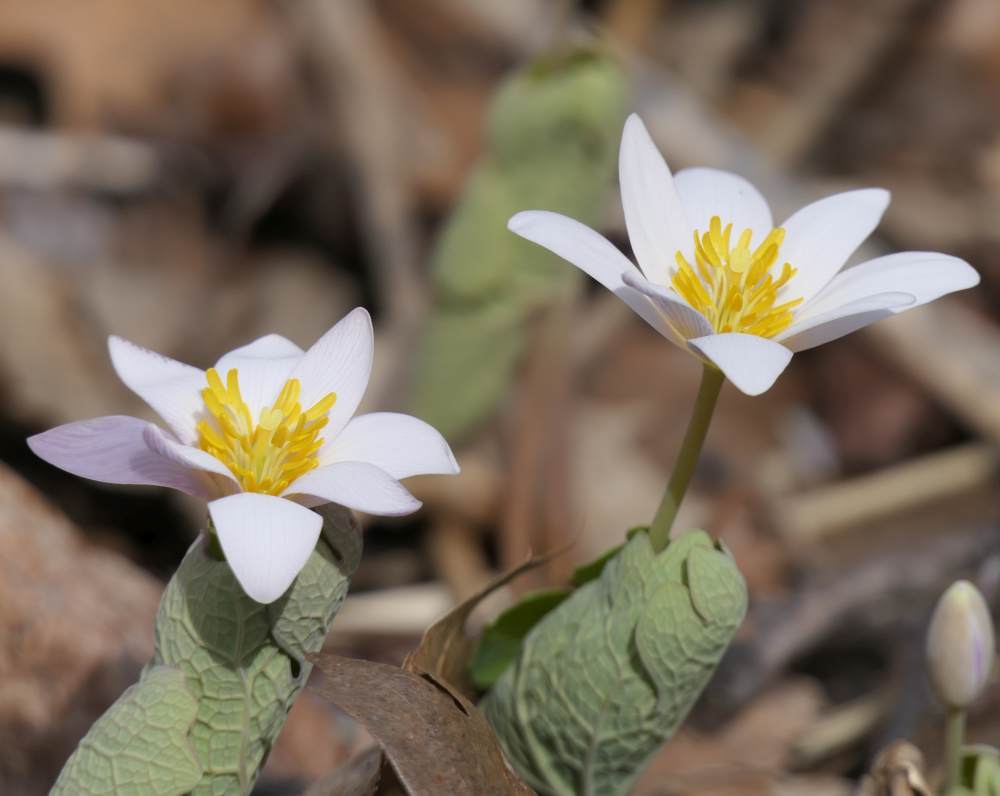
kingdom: Plantae
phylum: Tracheophyta
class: Magnoliopsida
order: Ranunculales
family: Papaveraceae
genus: Sanguinaria
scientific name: Sanguinaria canadensis
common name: Bloodroot
